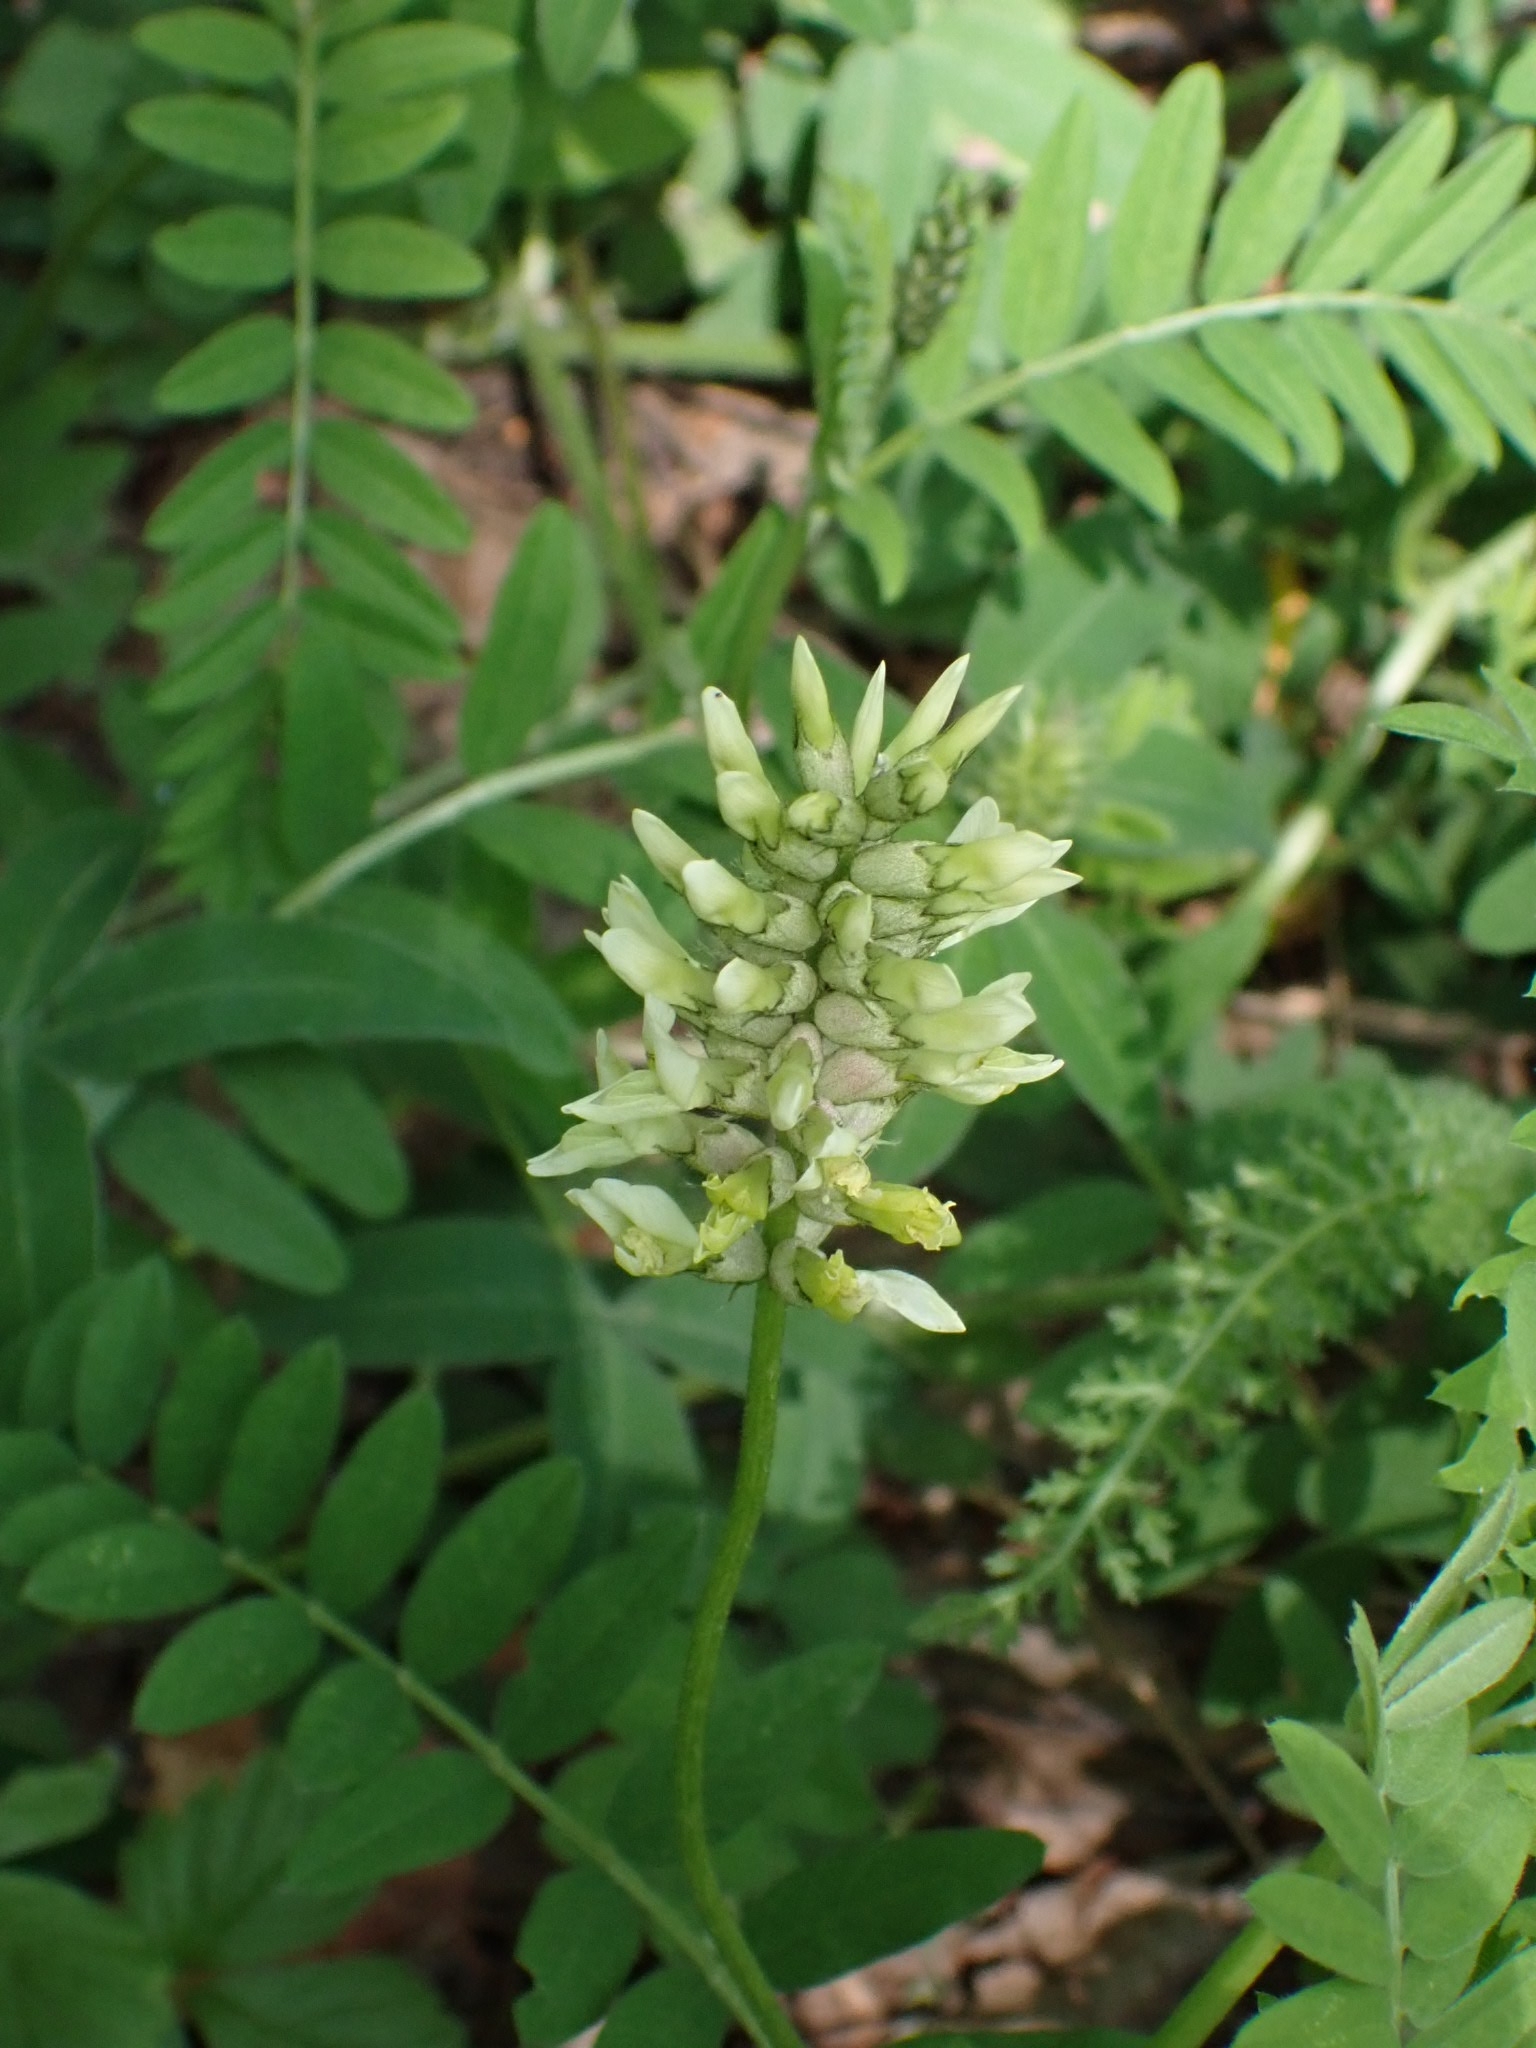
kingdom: Plantae
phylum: Tracheophyta
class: Magnoliopsida
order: Fabales
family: Fabaceae
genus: Astragalus
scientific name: Astragalus cicer
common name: Chick-pea milk-vetch
